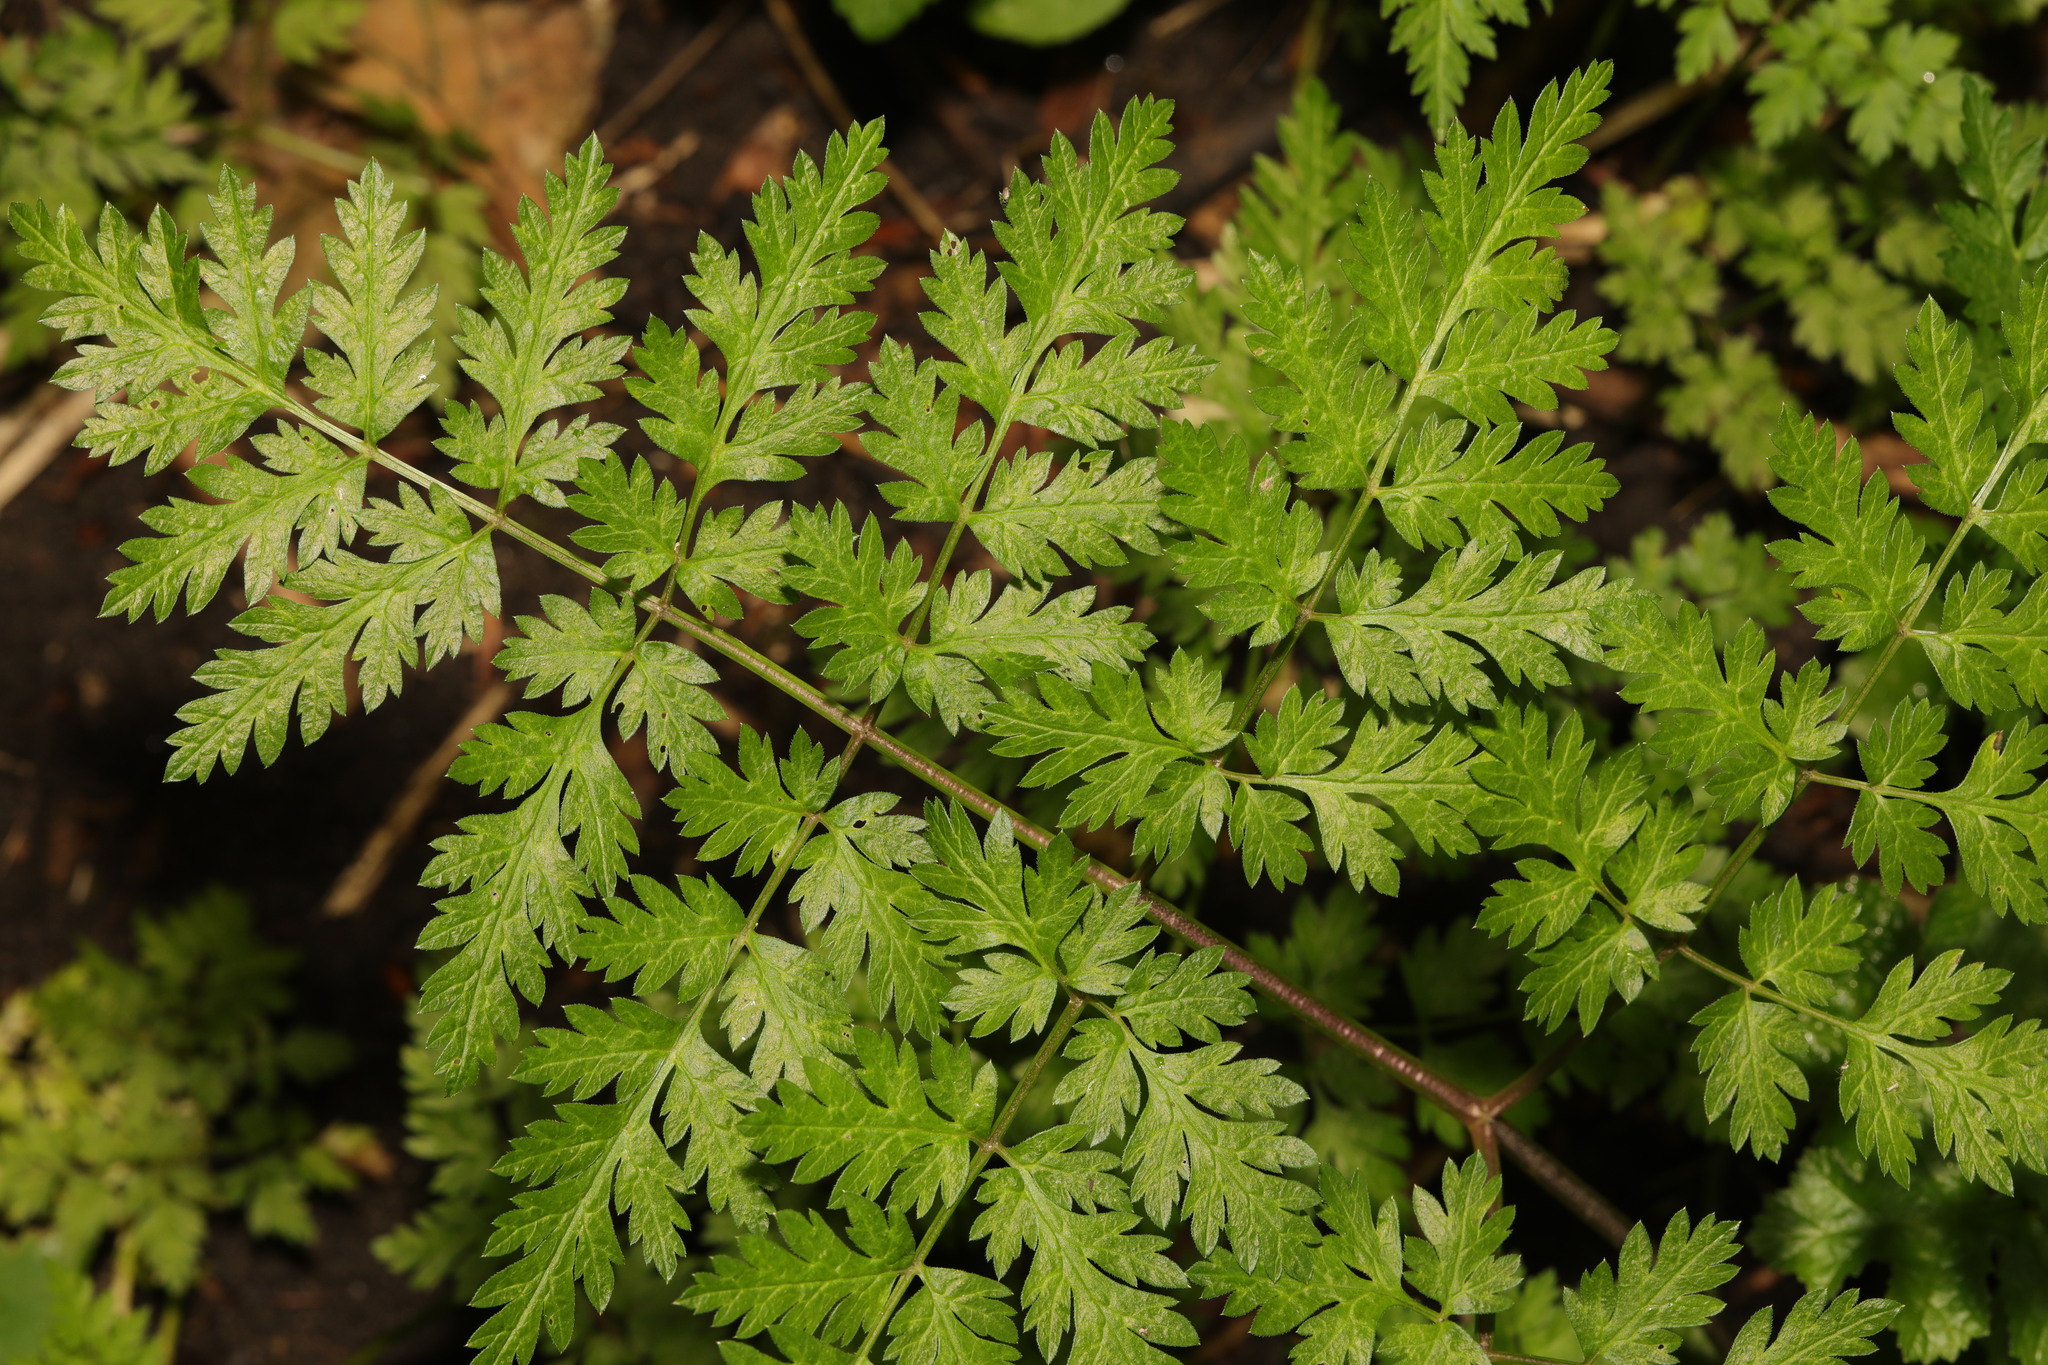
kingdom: Plantae
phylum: Tracheophyta
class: Magnoliopsida
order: Apiales
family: Apiaceae
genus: Anthriscus
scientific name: Anthriscus sylvestris
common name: Cow parsley
